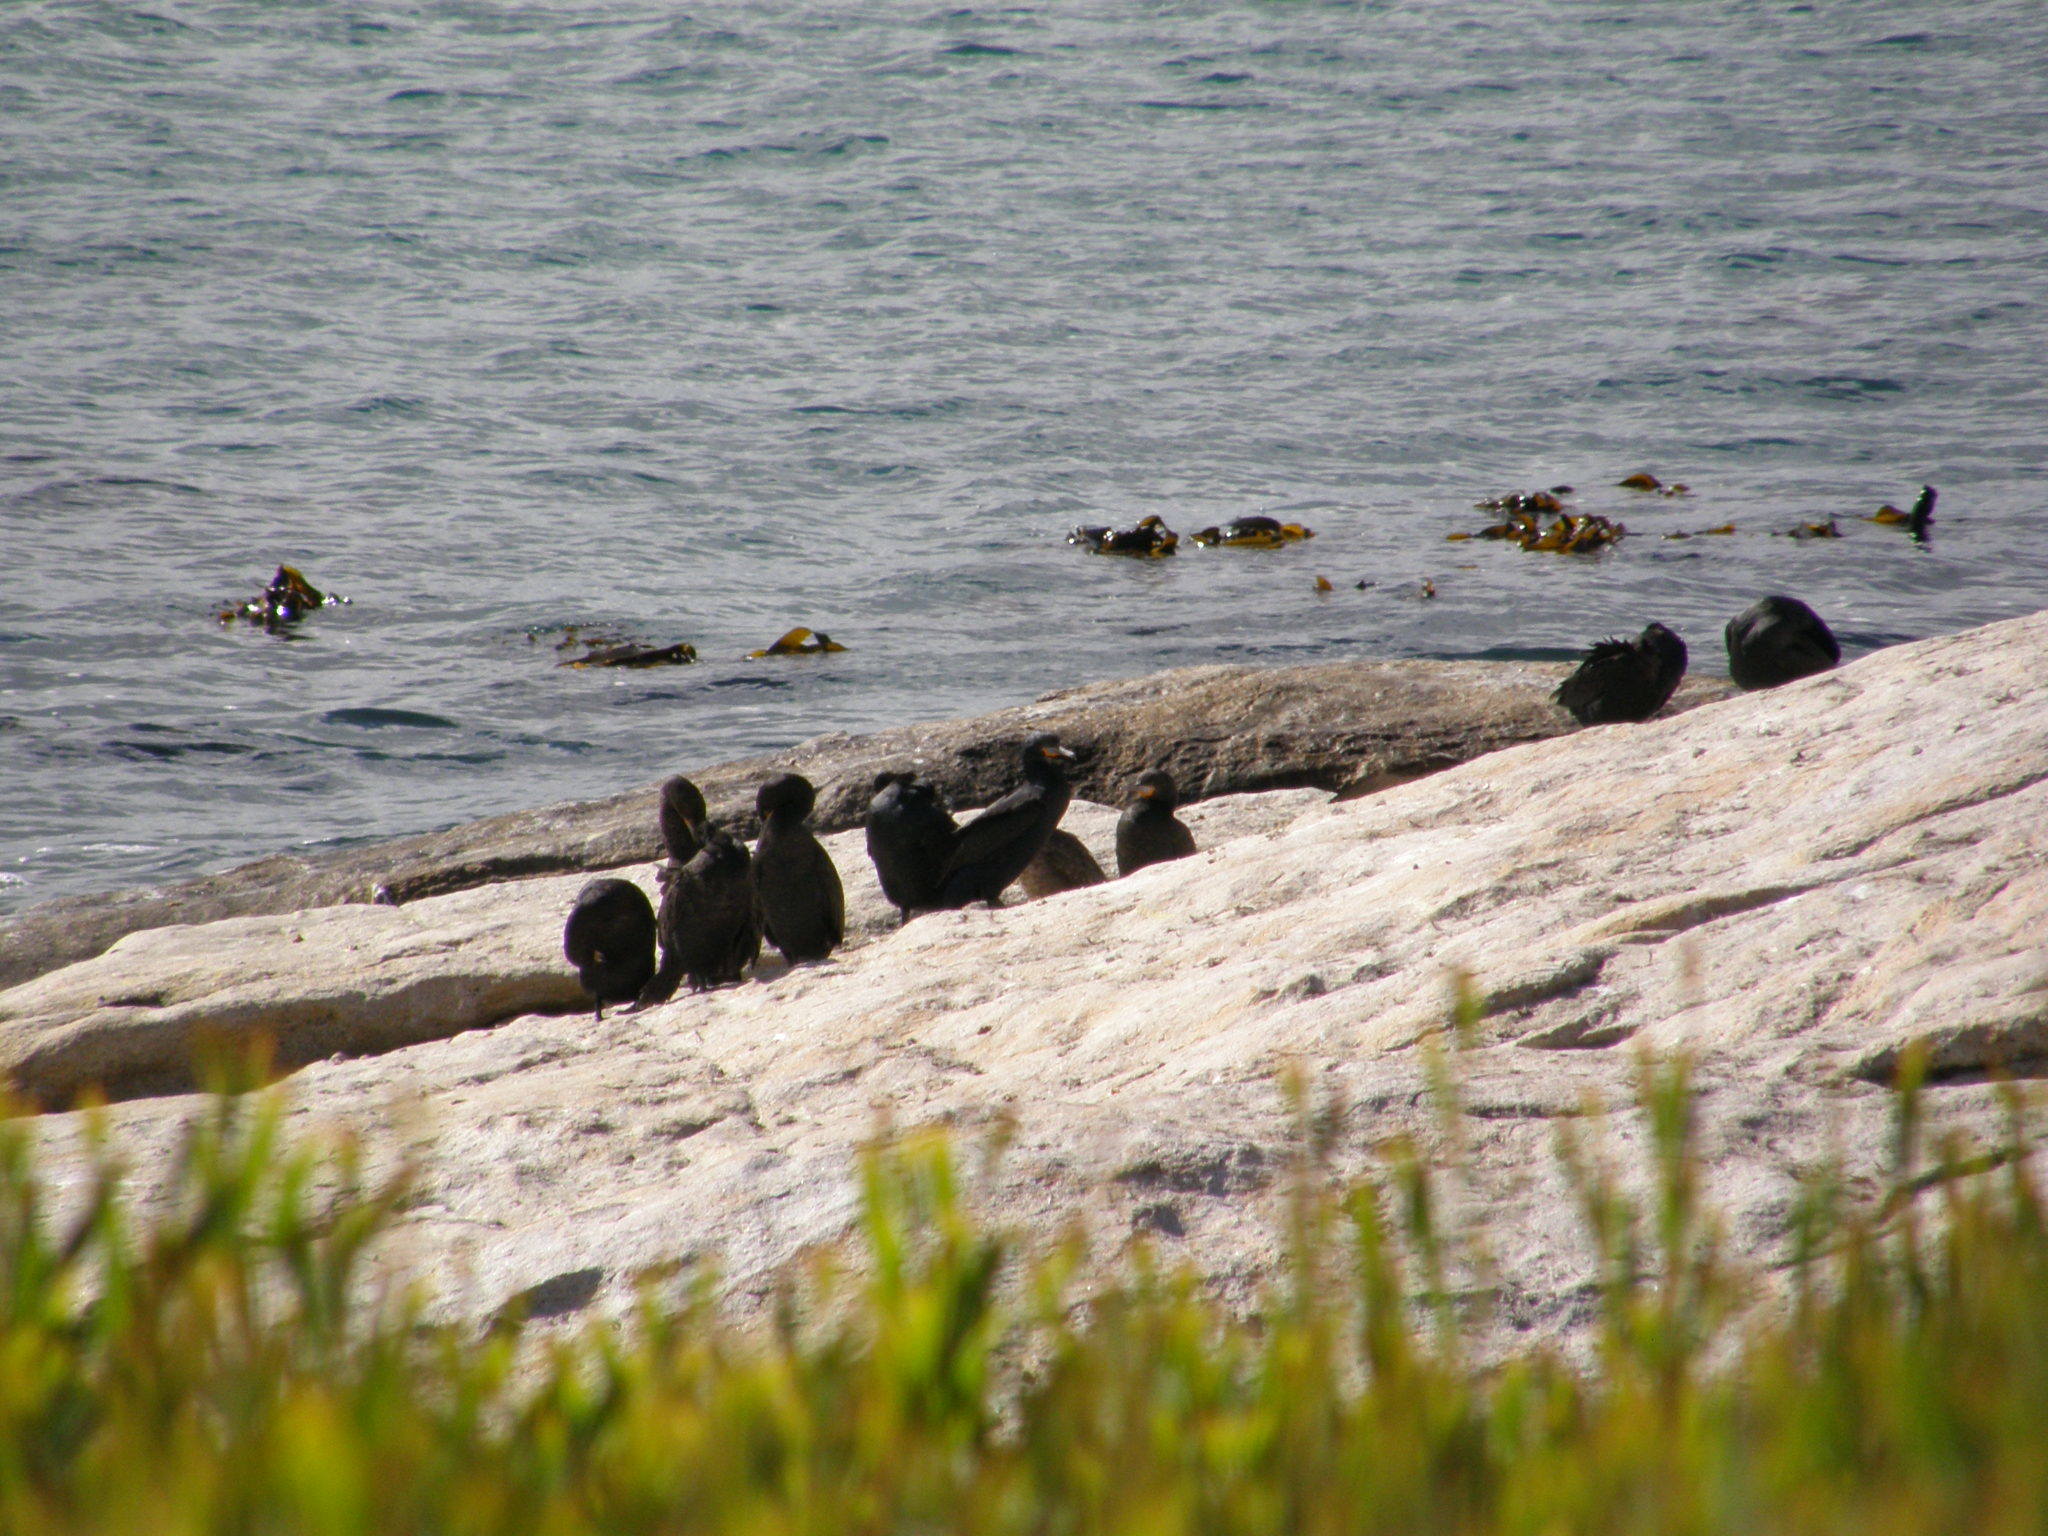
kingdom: Animalia
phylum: Chordata
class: Aves
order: Suliformes
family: Phalacrocoracidae
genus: Phalacrocorax
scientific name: Phalacrocorax capensis
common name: Cape cormorant
